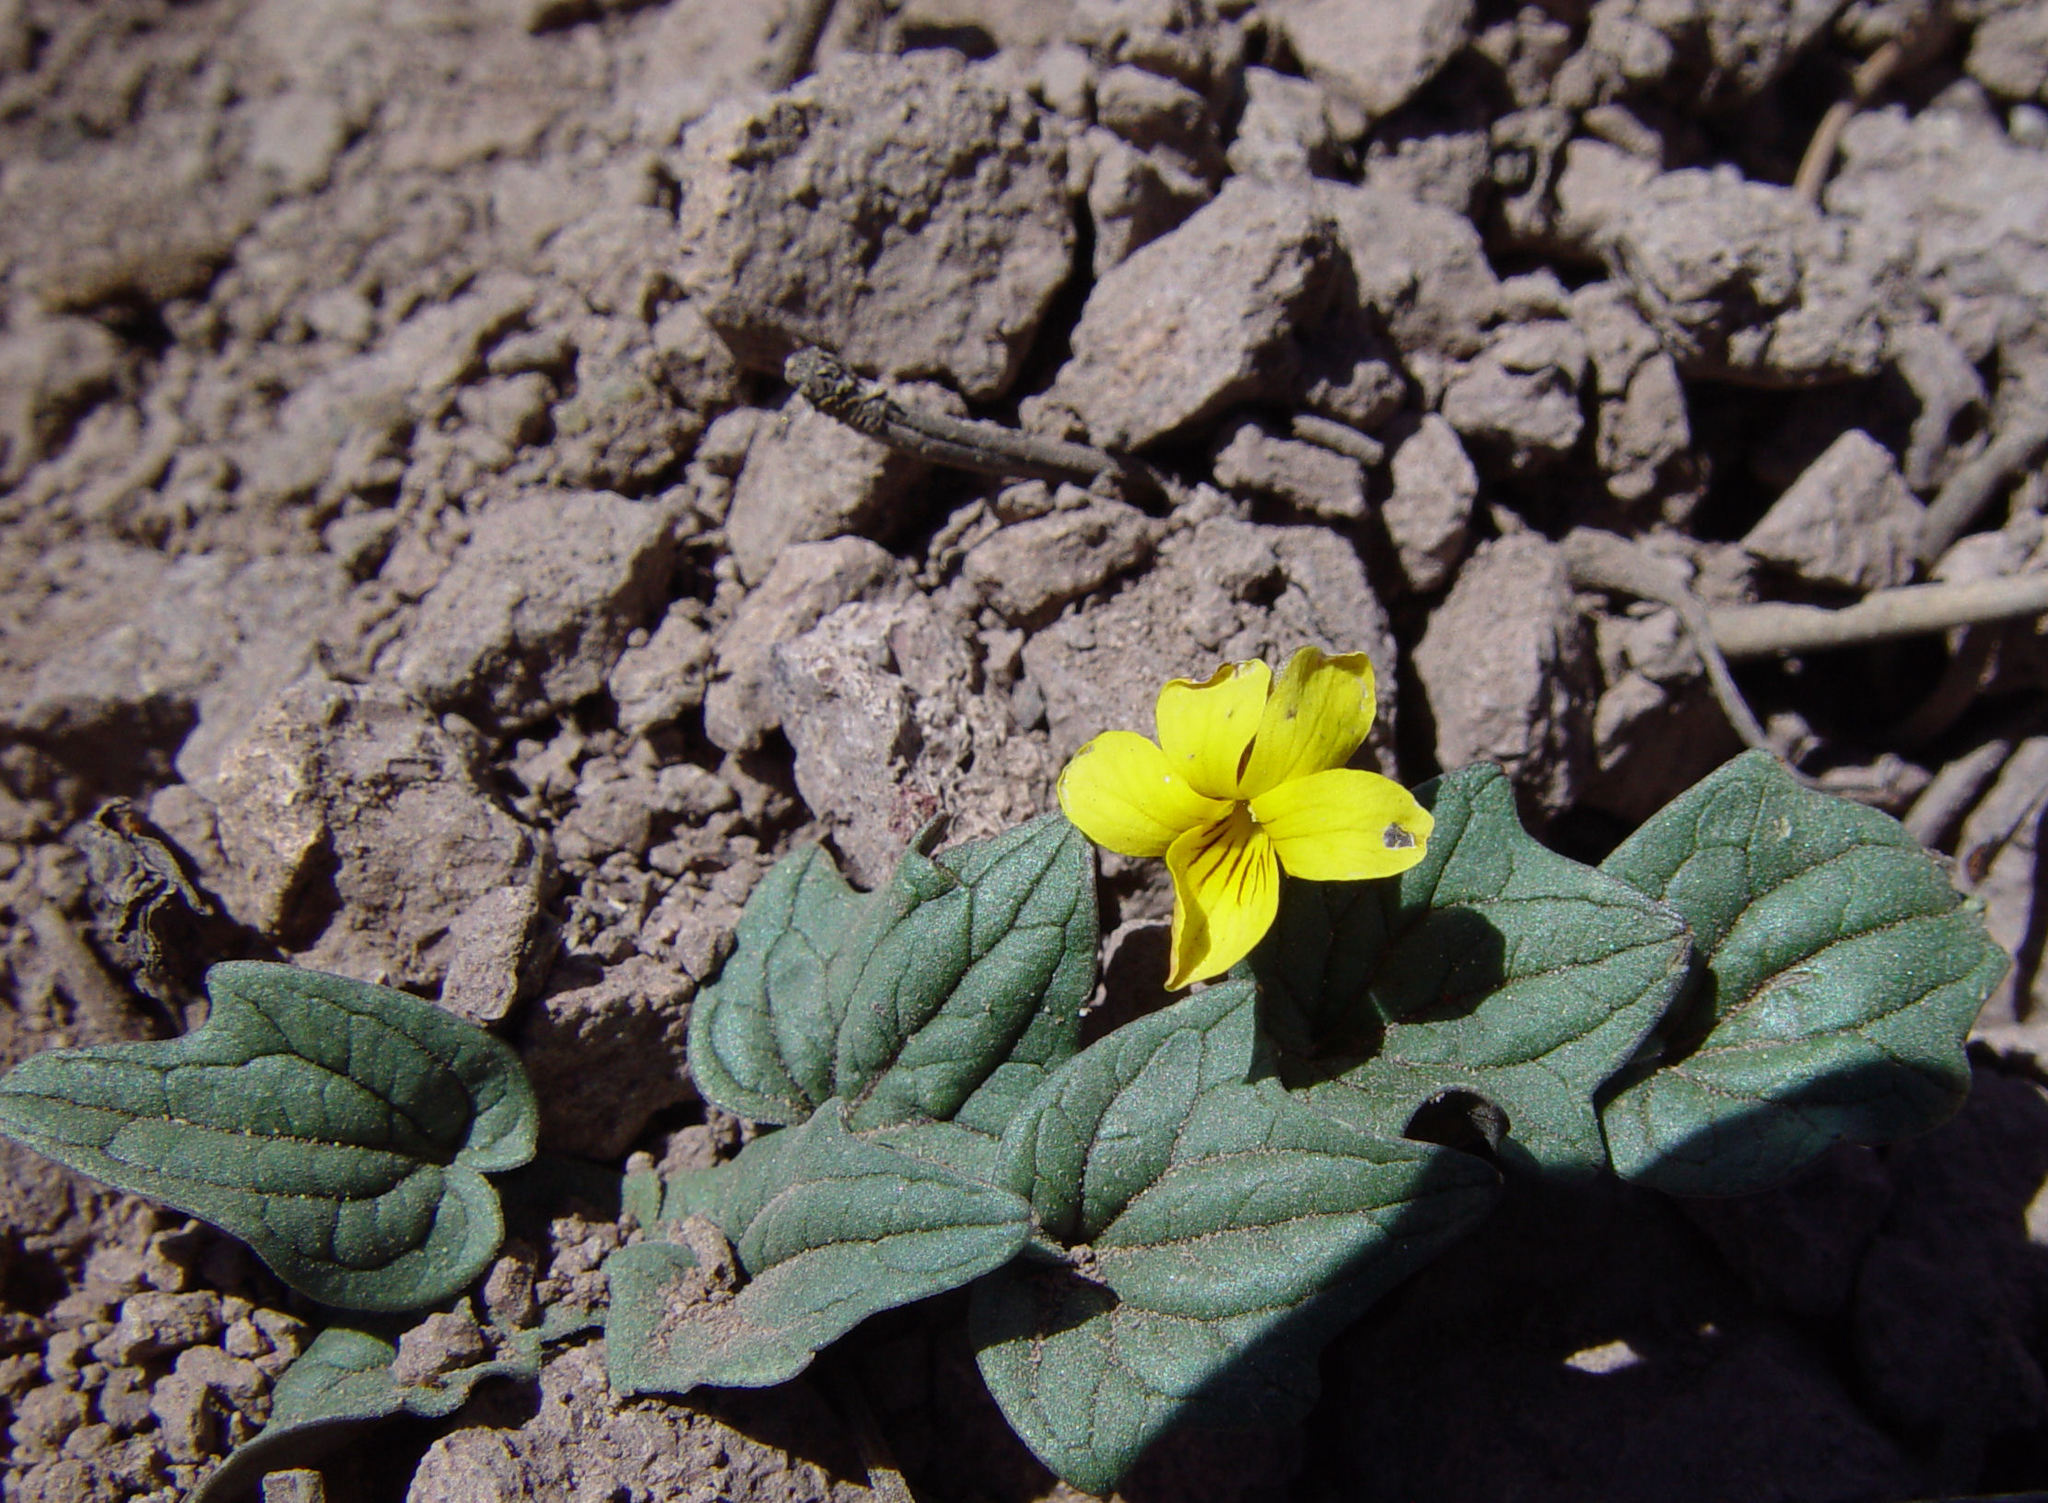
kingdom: Plantae
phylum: Tracheophyta
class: Magnoliopsida
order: Malpighiales
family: Violaceae
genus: Viola
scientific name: Viola purpurea
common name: Pine violet
